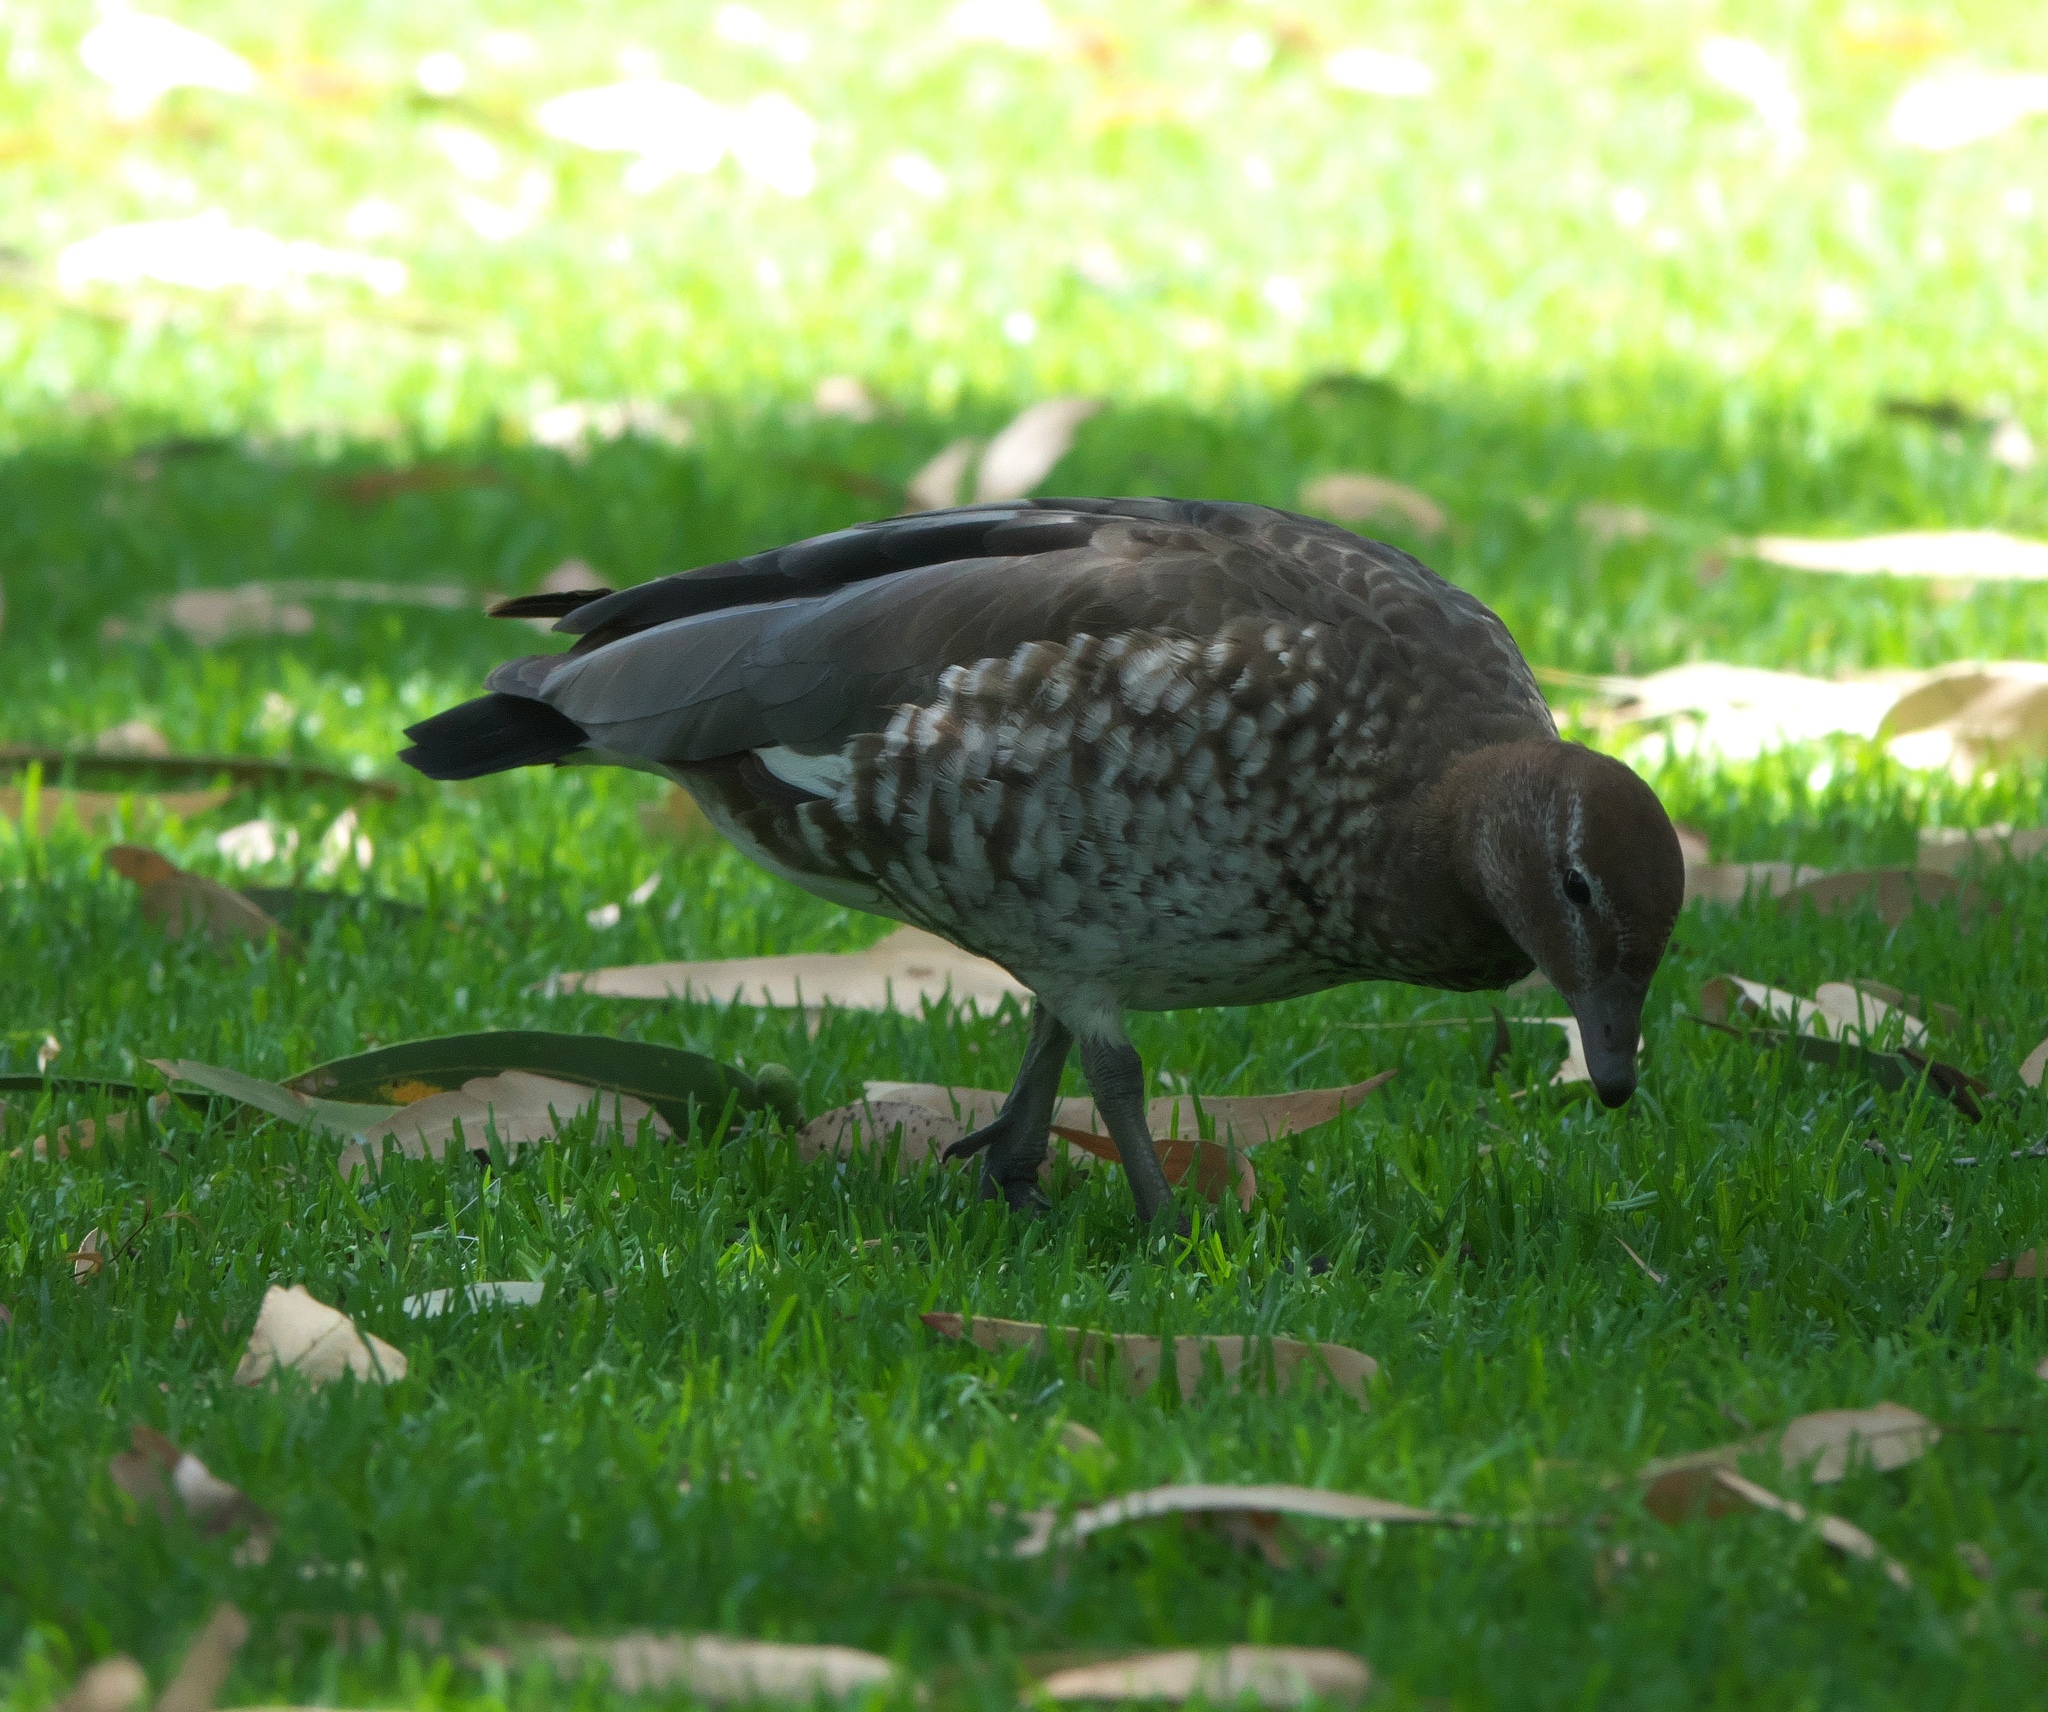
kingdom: Animalia
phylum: Chordata
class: Aves
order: Anseriformes
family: Anatidae
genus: Chenonetta
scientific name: Chenonetta jubata
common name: Maned duck
